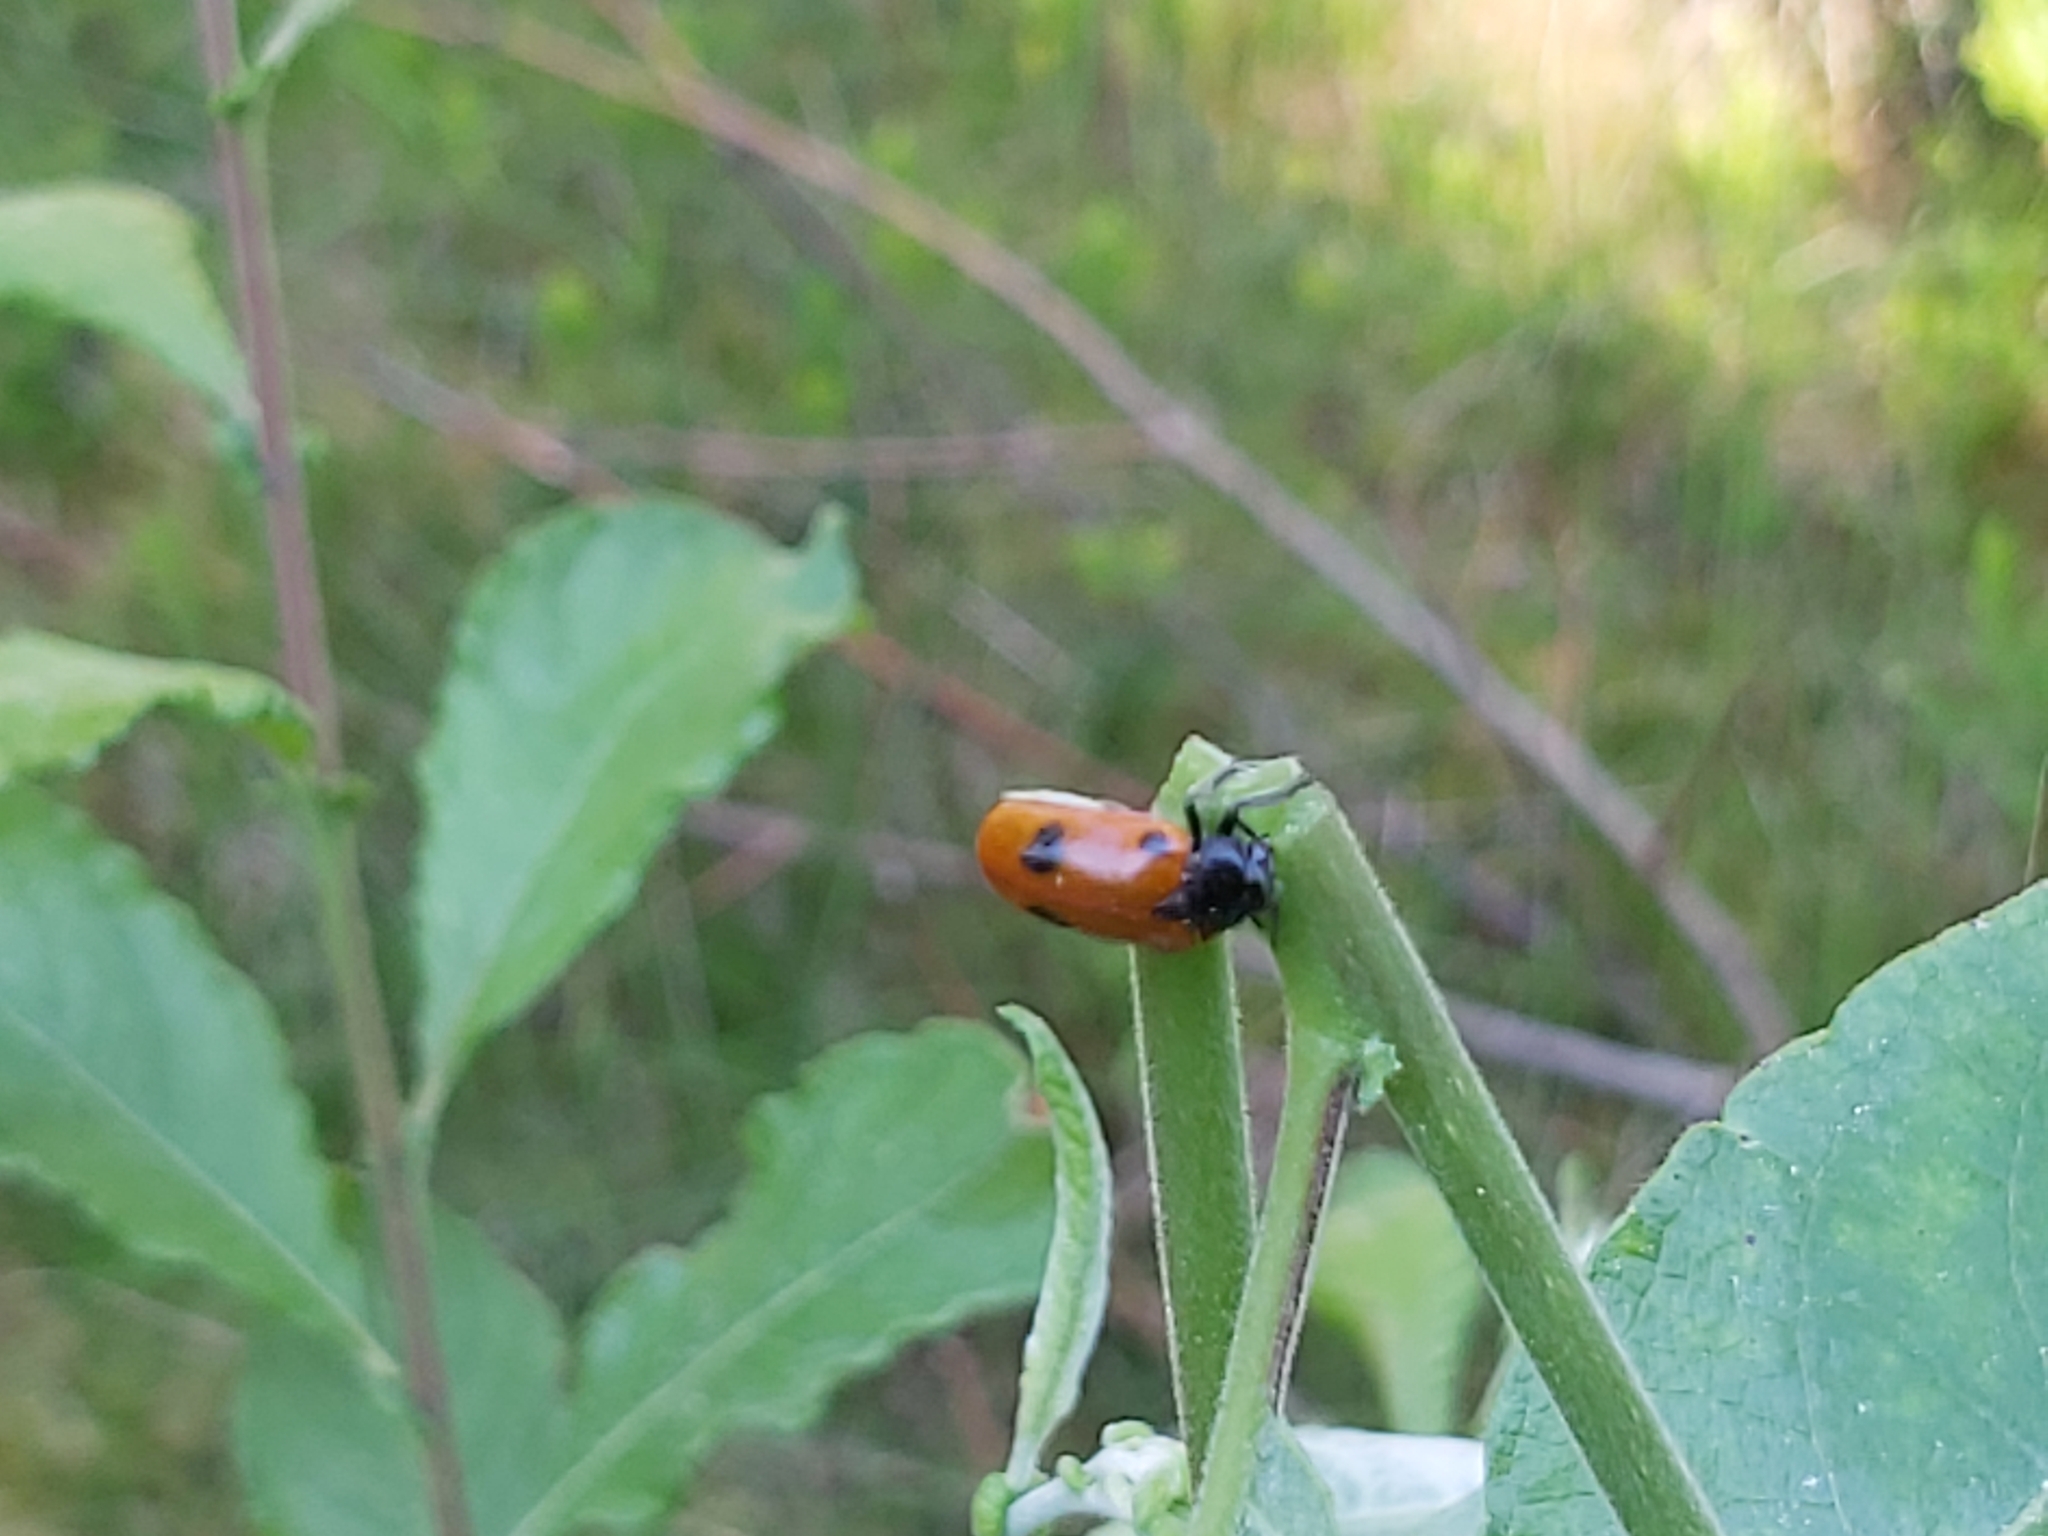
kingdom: Animalia
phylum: Arthropoda
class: Insecta
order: Coleoptera
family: Chrysomelidae
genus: Clytra
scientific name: Clytra quadripunctata
